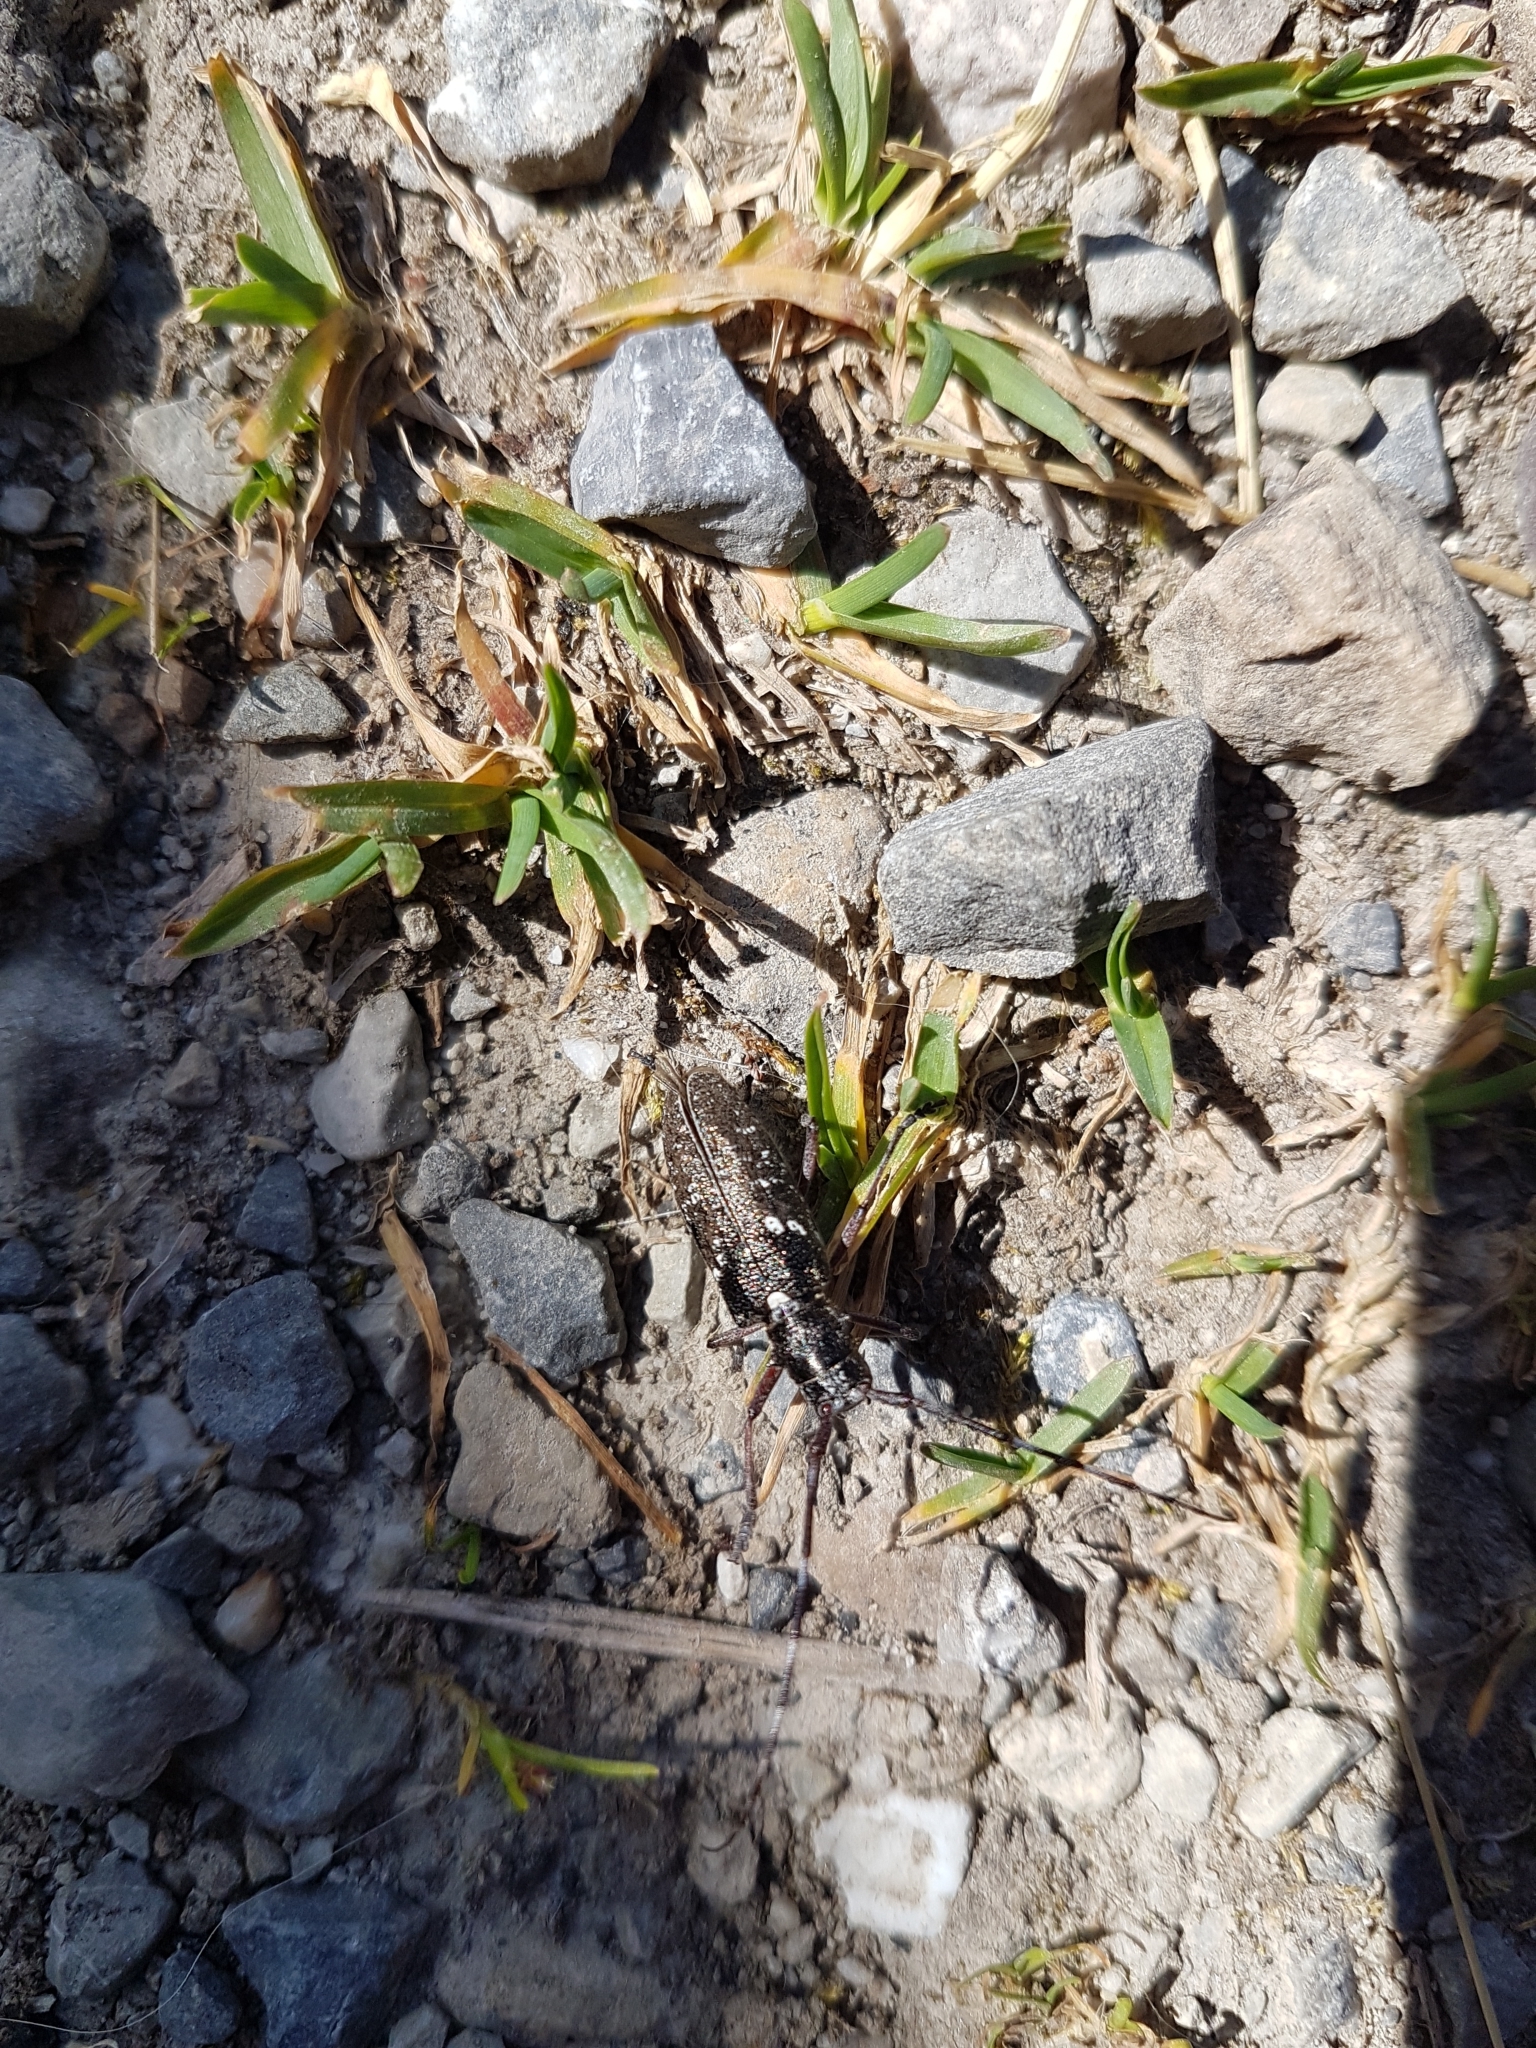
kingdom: Animalia
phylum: Arthropoda
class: Insecta
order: Coleoptera
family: Cerambycidae
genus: Monochamus
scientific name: Monochamus scutellatus
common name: White-spotted sawyer beetle
